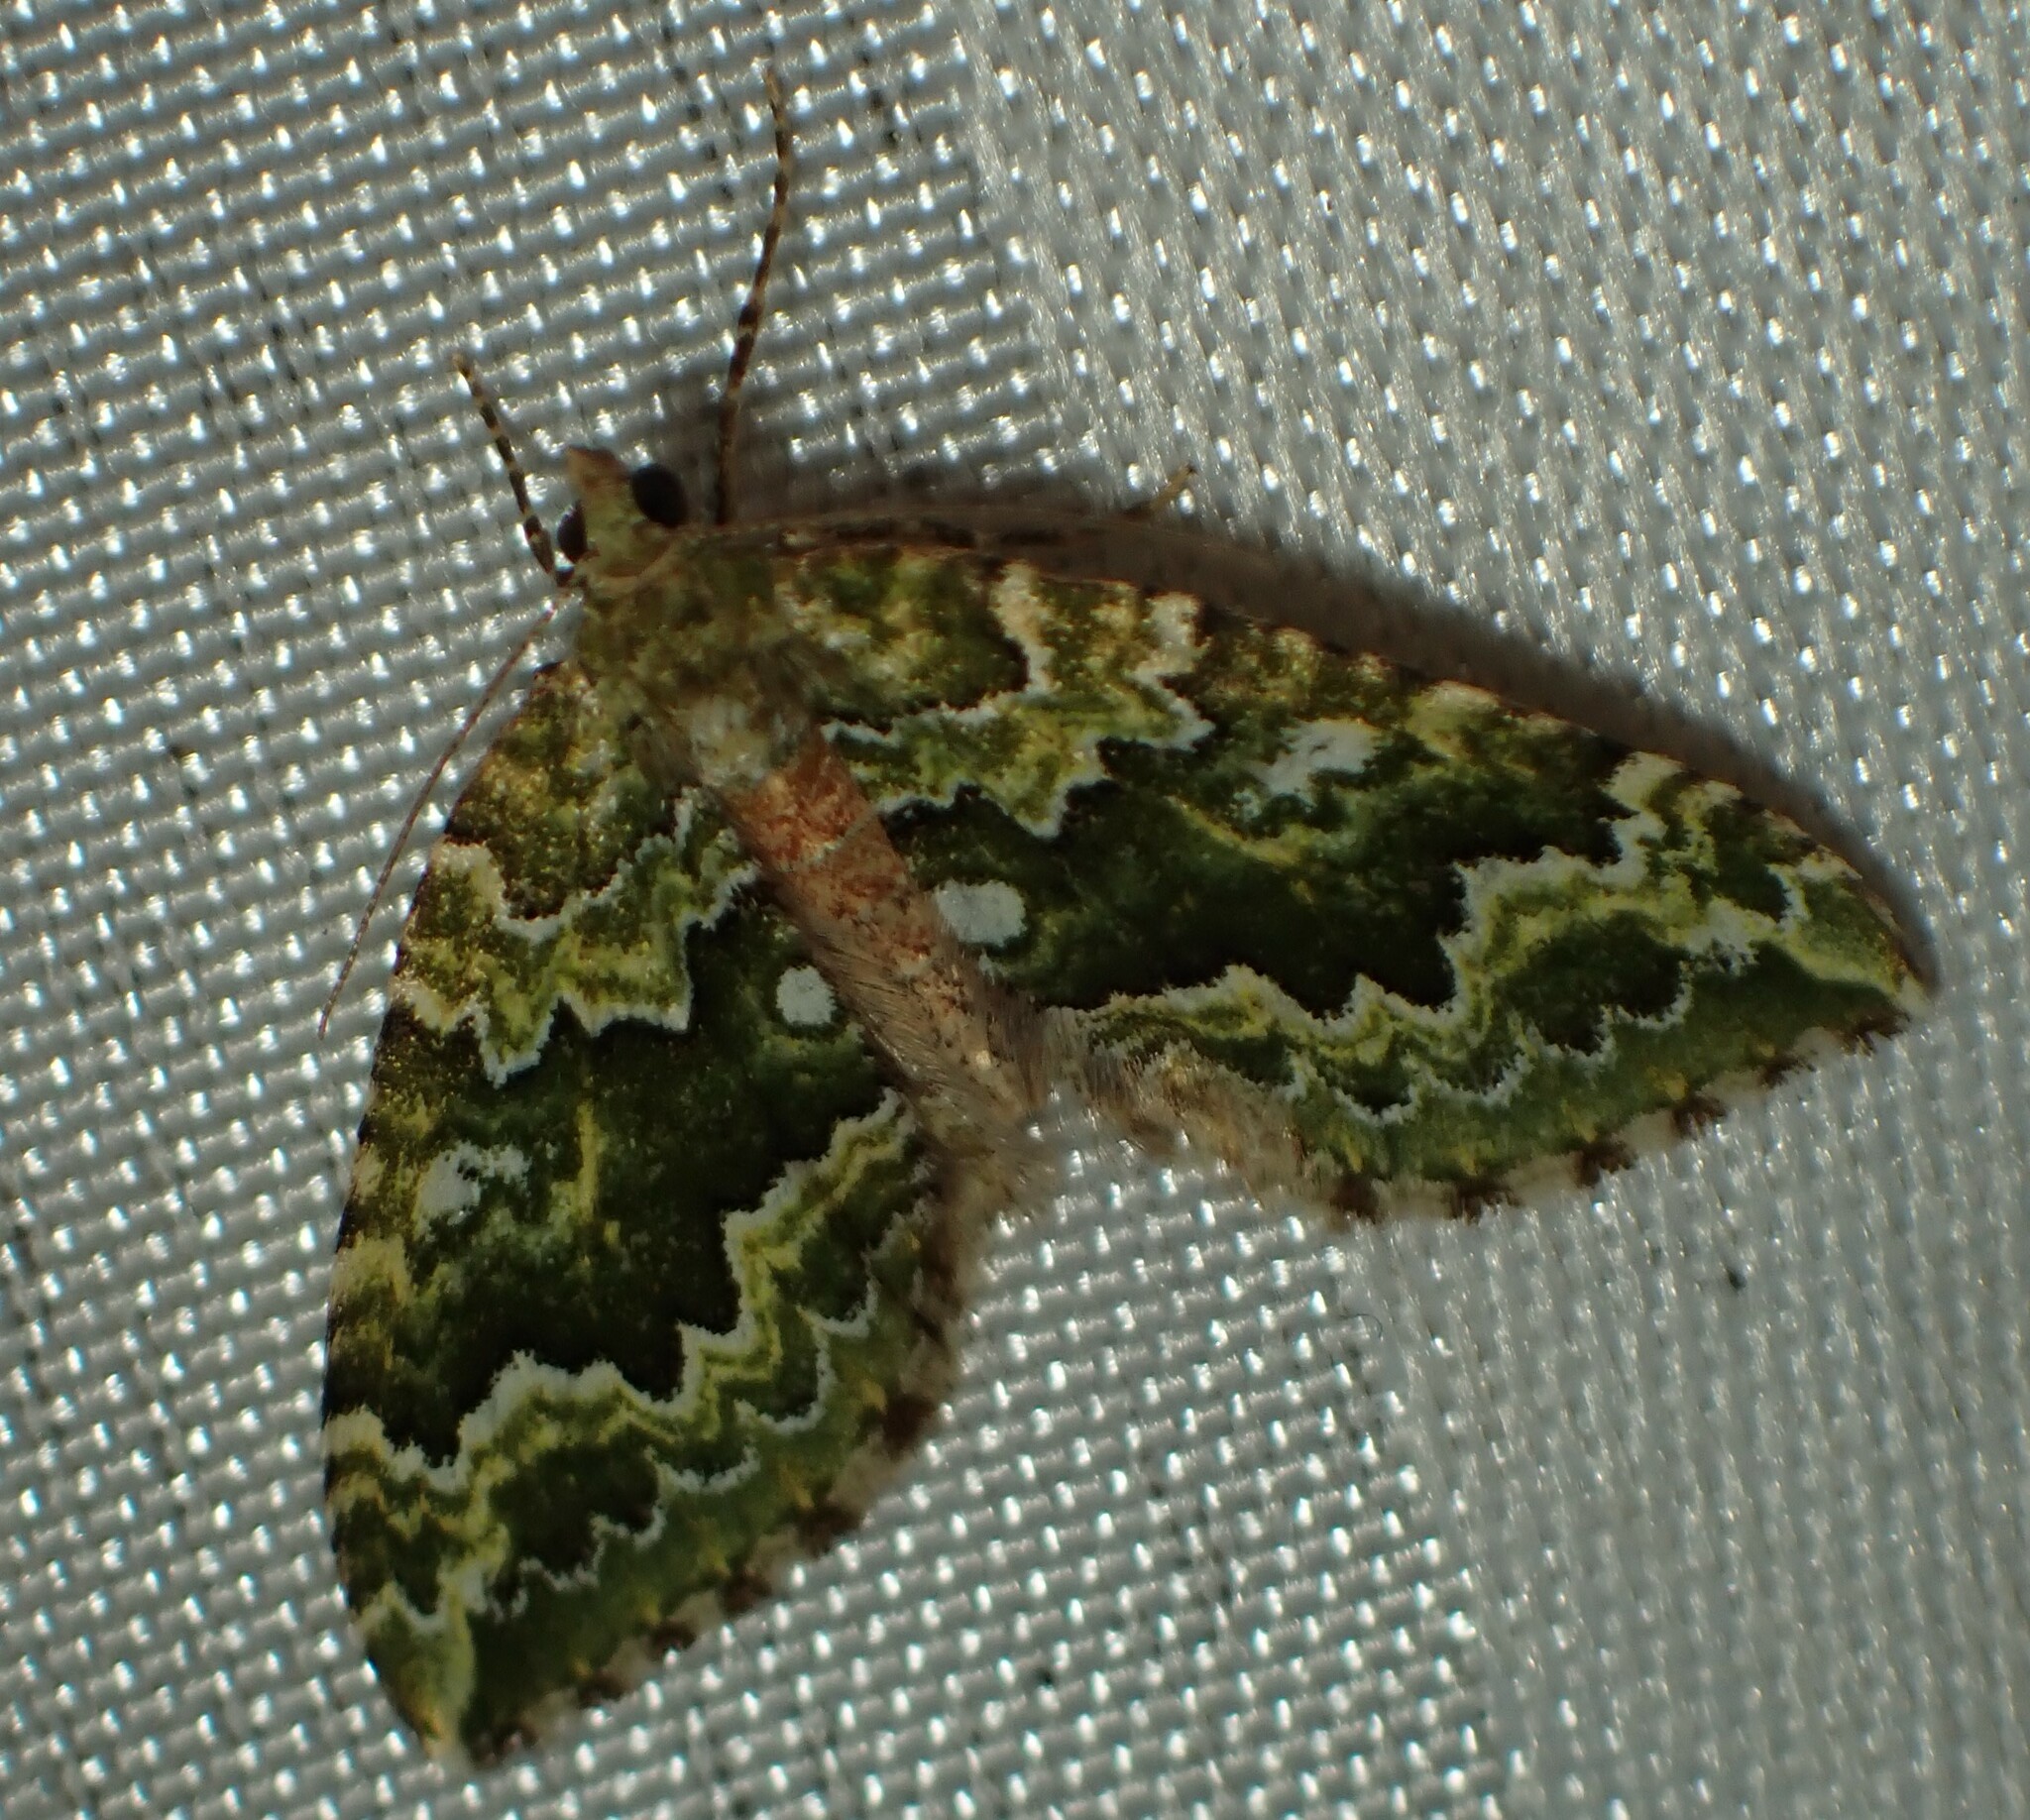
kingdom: Animalia
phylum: Arthropoda
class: Insecta
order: Lepidoptera
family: Geometridae
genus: Asaphodes
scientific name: Asaphodes beata
